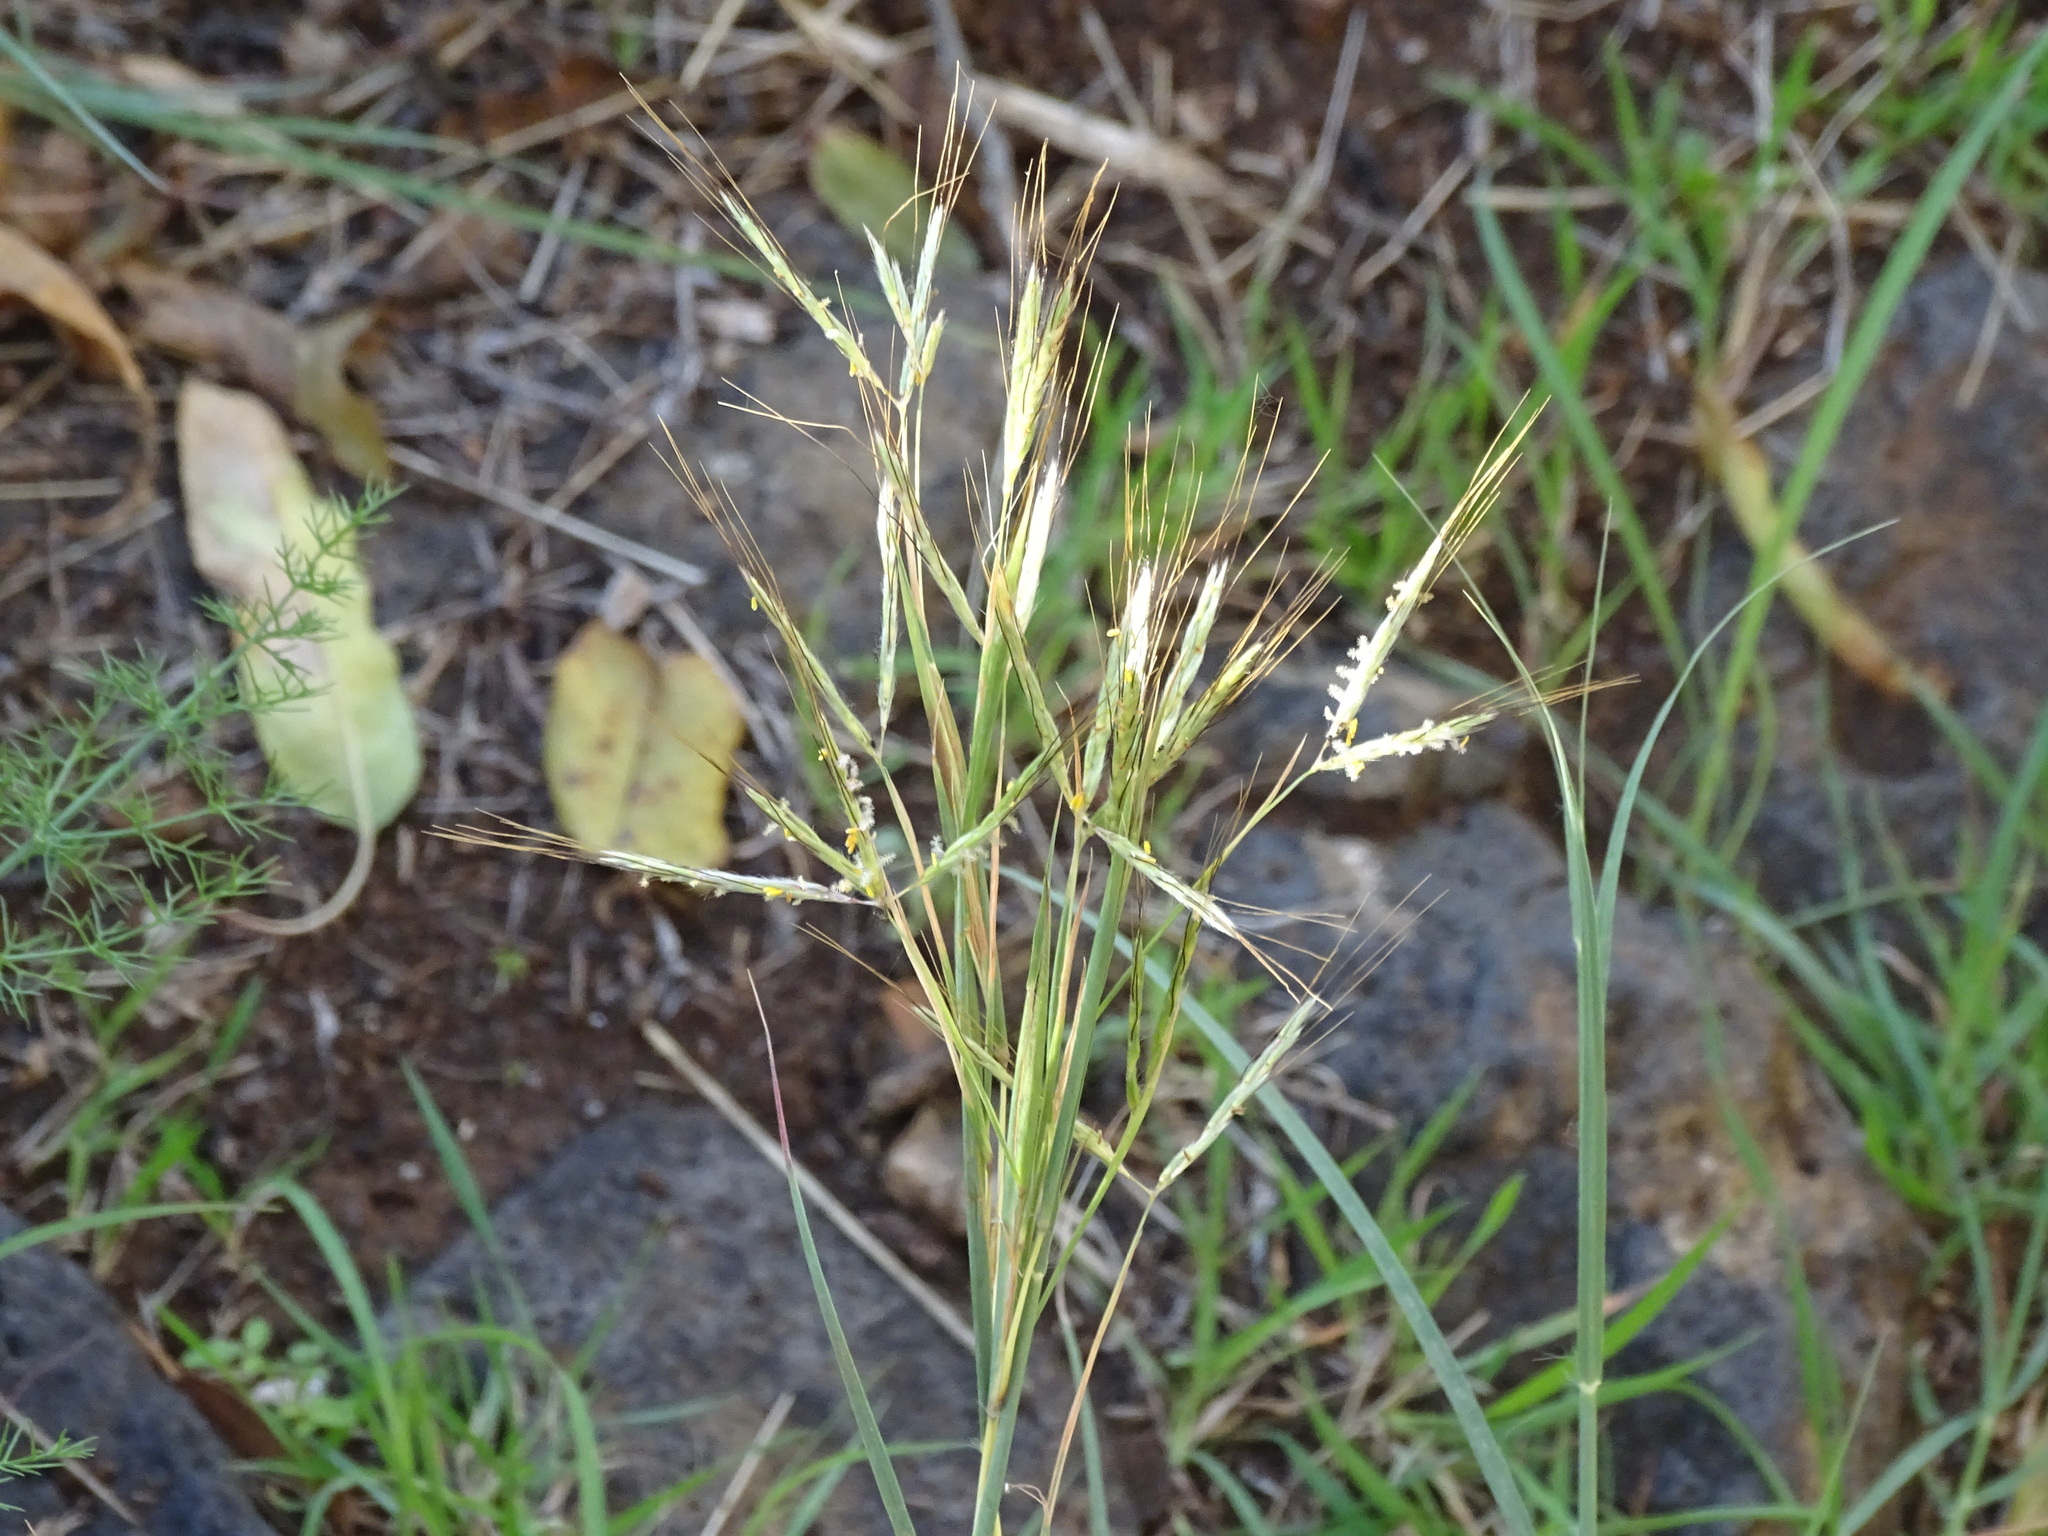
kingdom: Plantae
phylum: Tracheophyta
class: Liliopsida
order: Poales
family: Poaceae
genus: Hyparrhenia
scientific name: Hyparrhenia hirta
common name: Thatching grass
